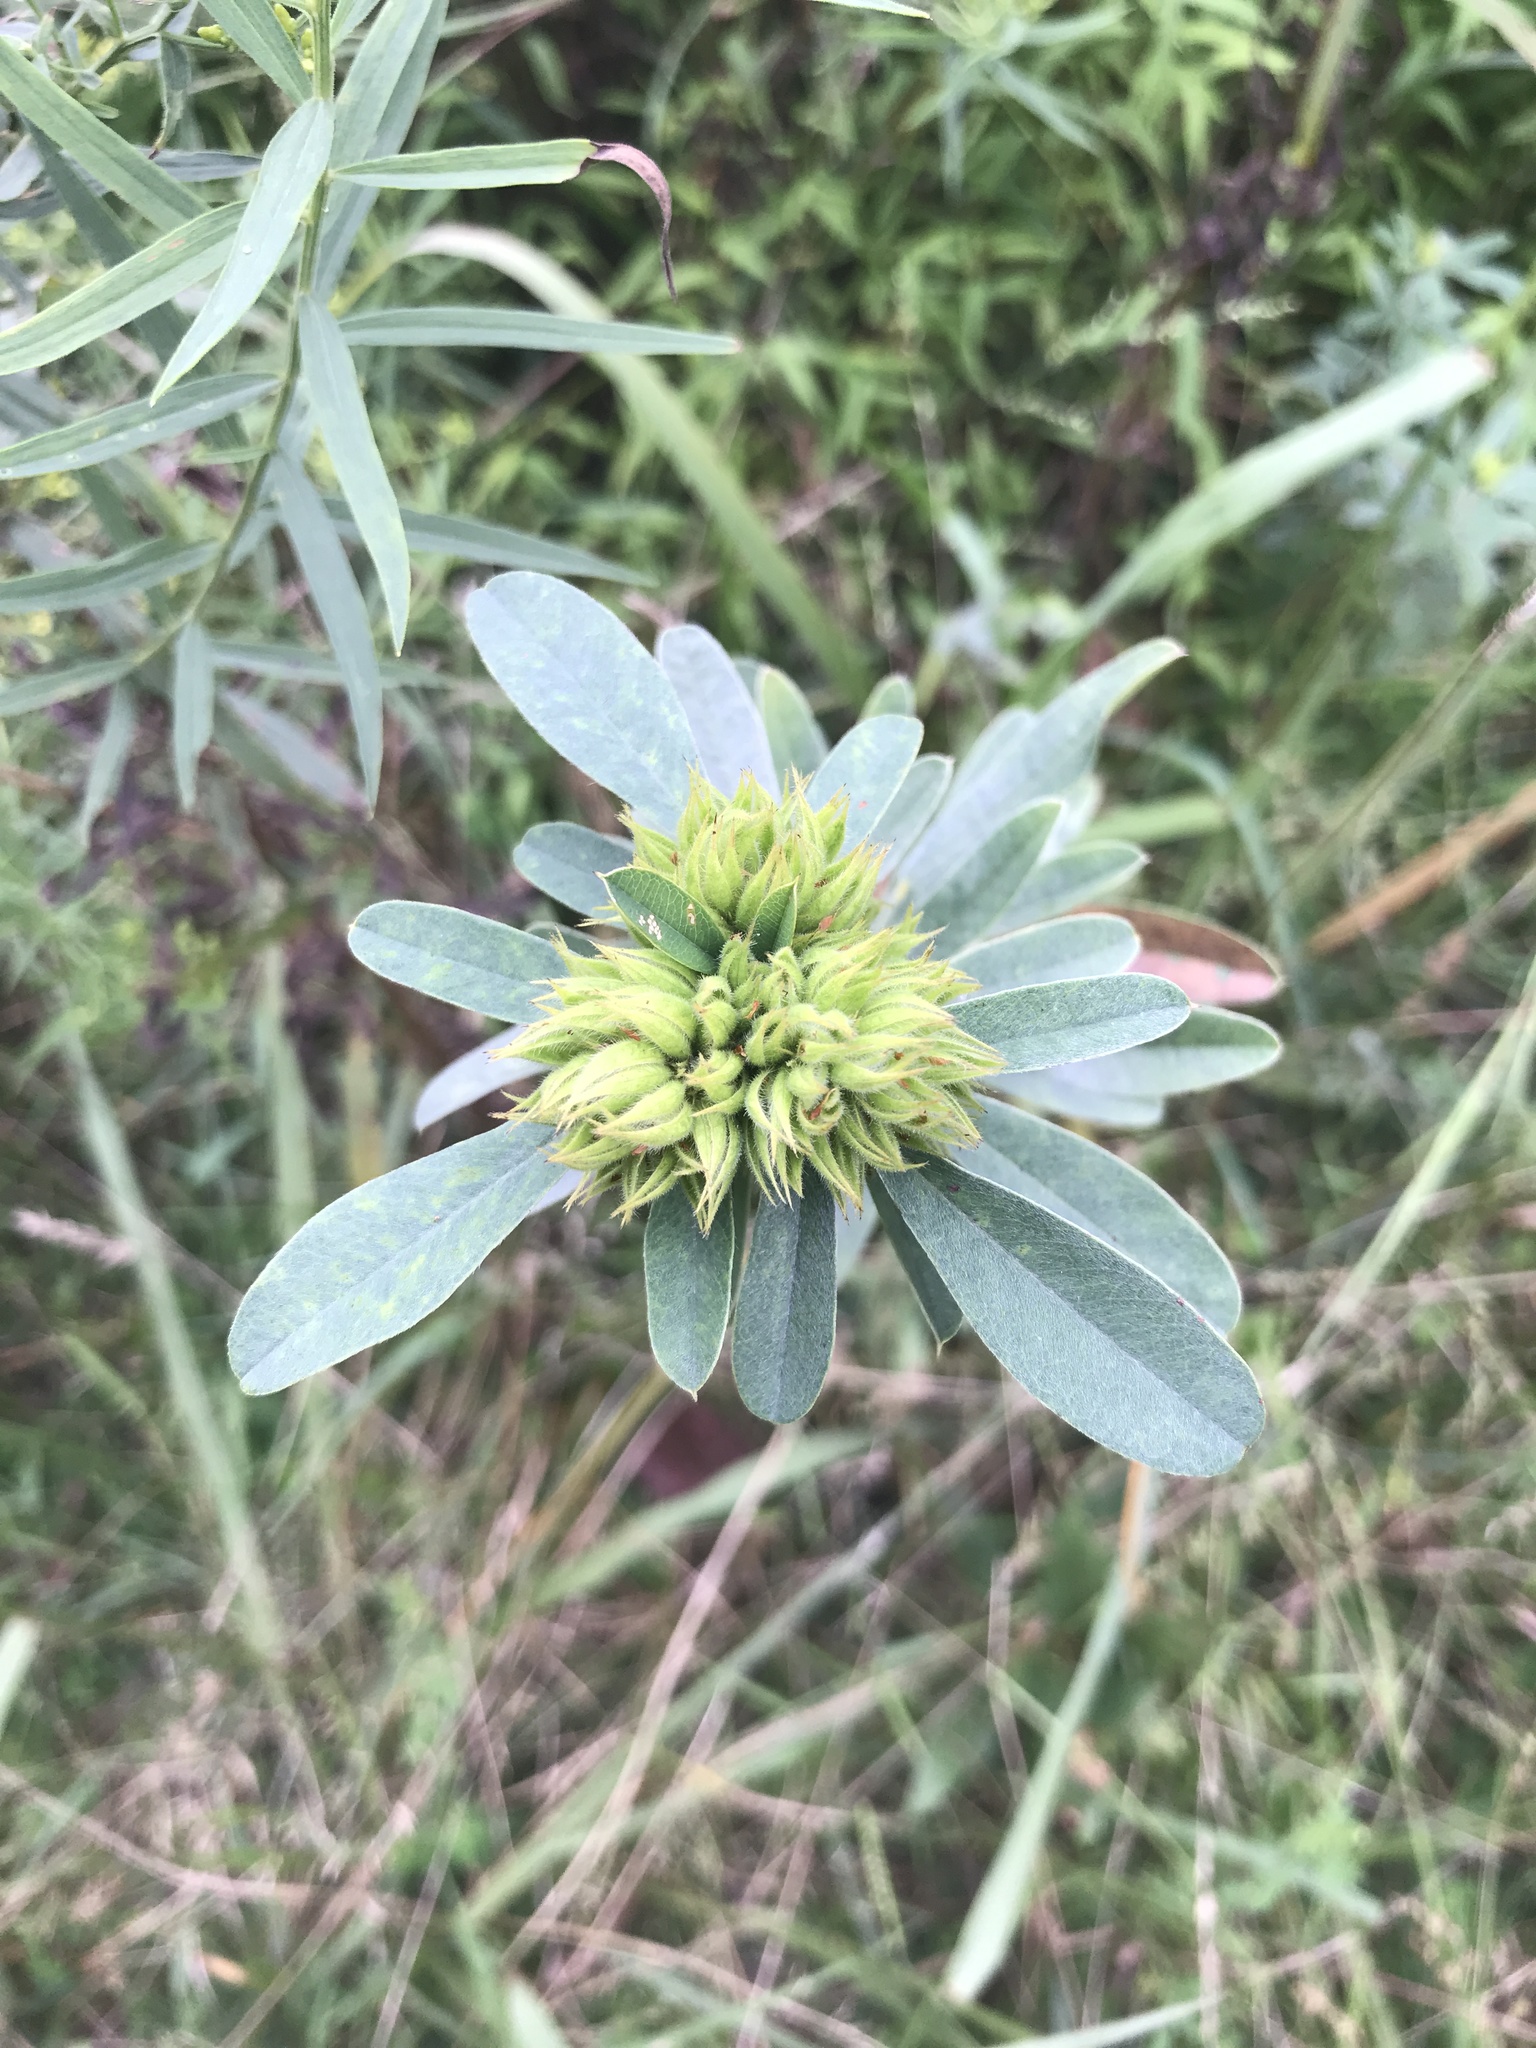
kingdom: Plantae
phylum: Tracheophyta
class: Magnoliopsida
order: Fabales
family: Fabaceae
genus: Lespedeza
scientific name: Lespedeza capitata
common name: Dusty clover
